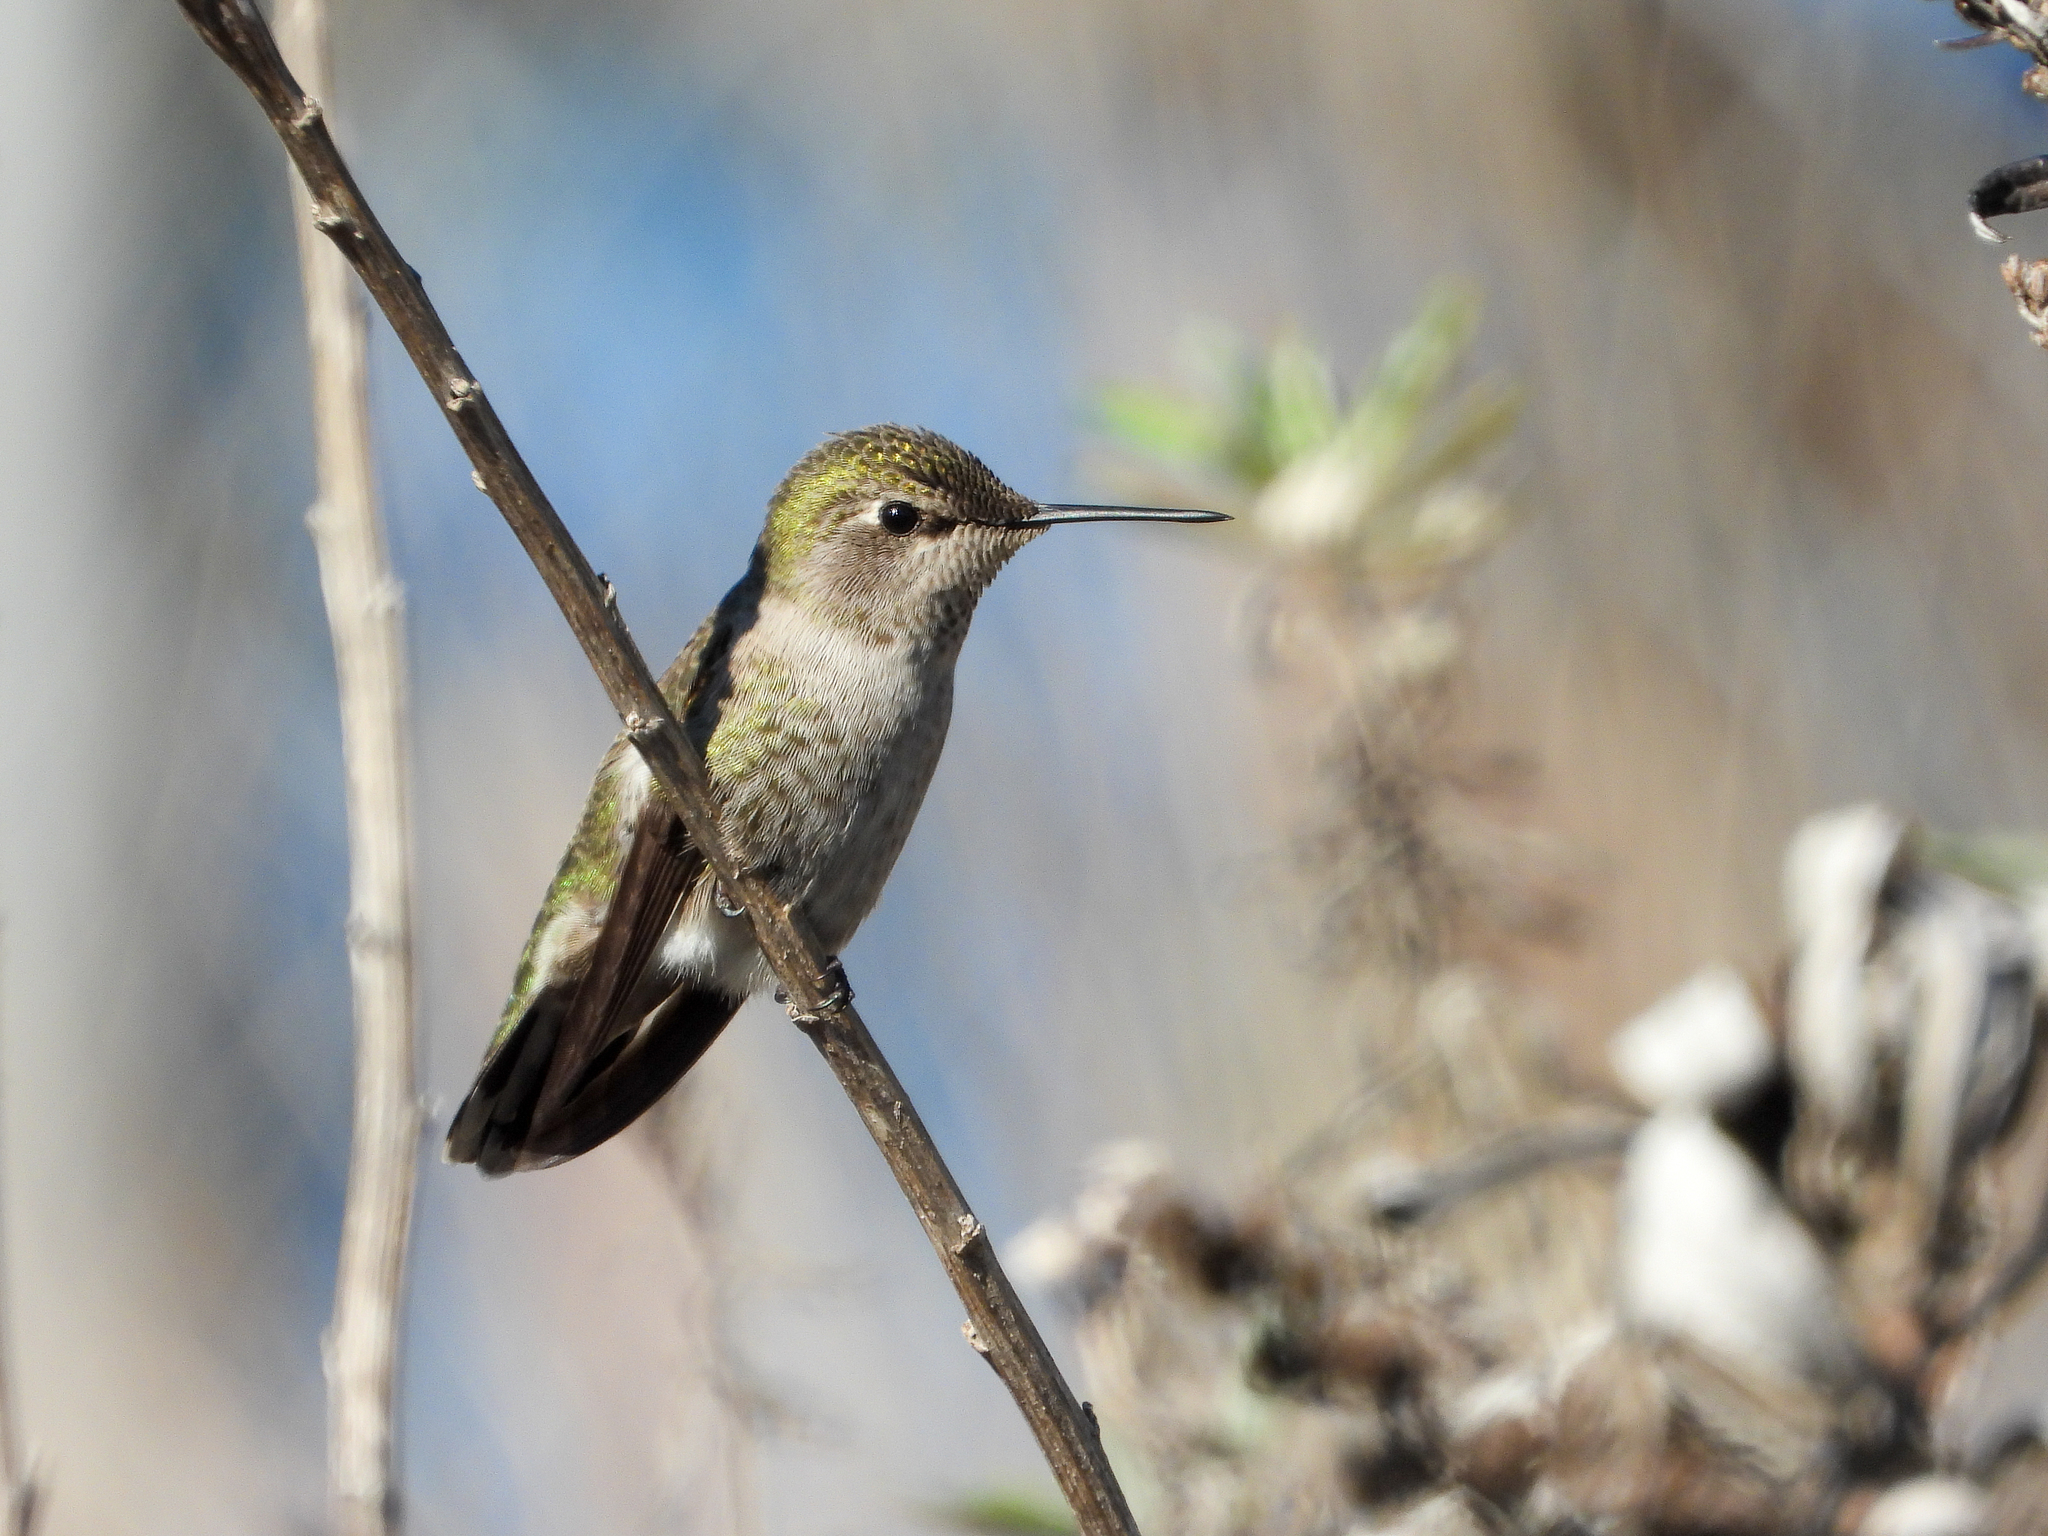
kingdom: Animalia
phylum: Chordata
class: Aves
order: Apodiformes
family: Trochilidae
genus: Calypte
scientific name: Calypte anna
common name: Anna's hummingbird
